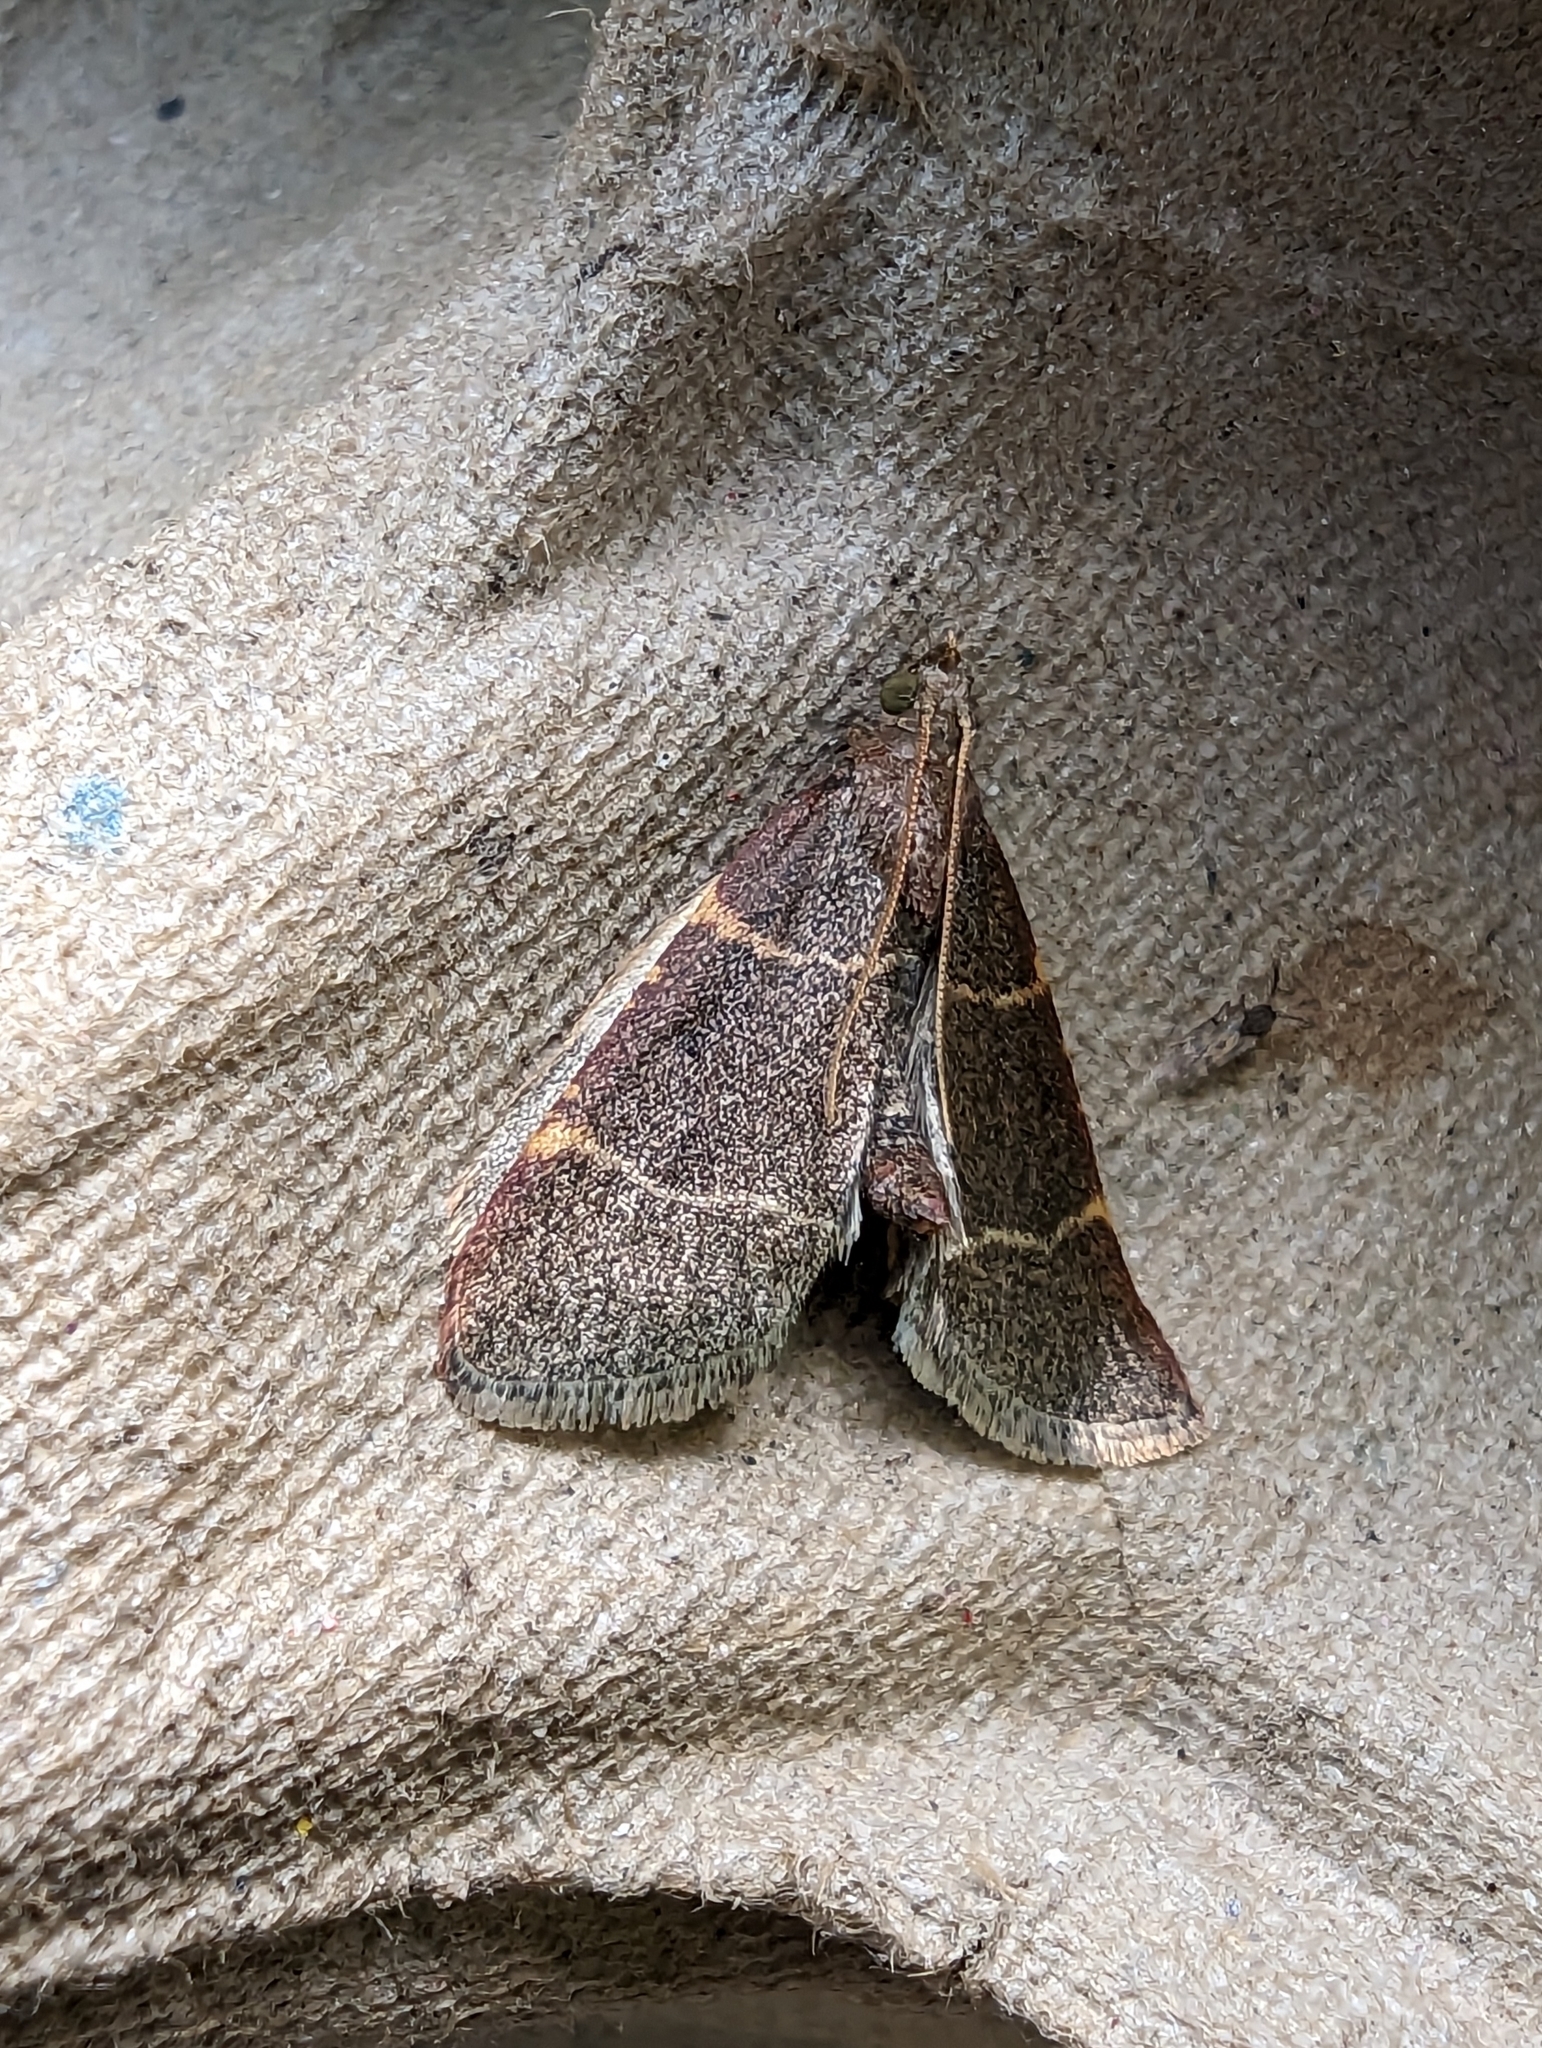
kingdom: Animalia
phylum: Arthropoda
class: Insecta
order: Lepidoptera
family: Pyralidae
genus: Hypsopygia
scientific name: Hypsopygia glaucinalis
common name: Double-striped tabby
